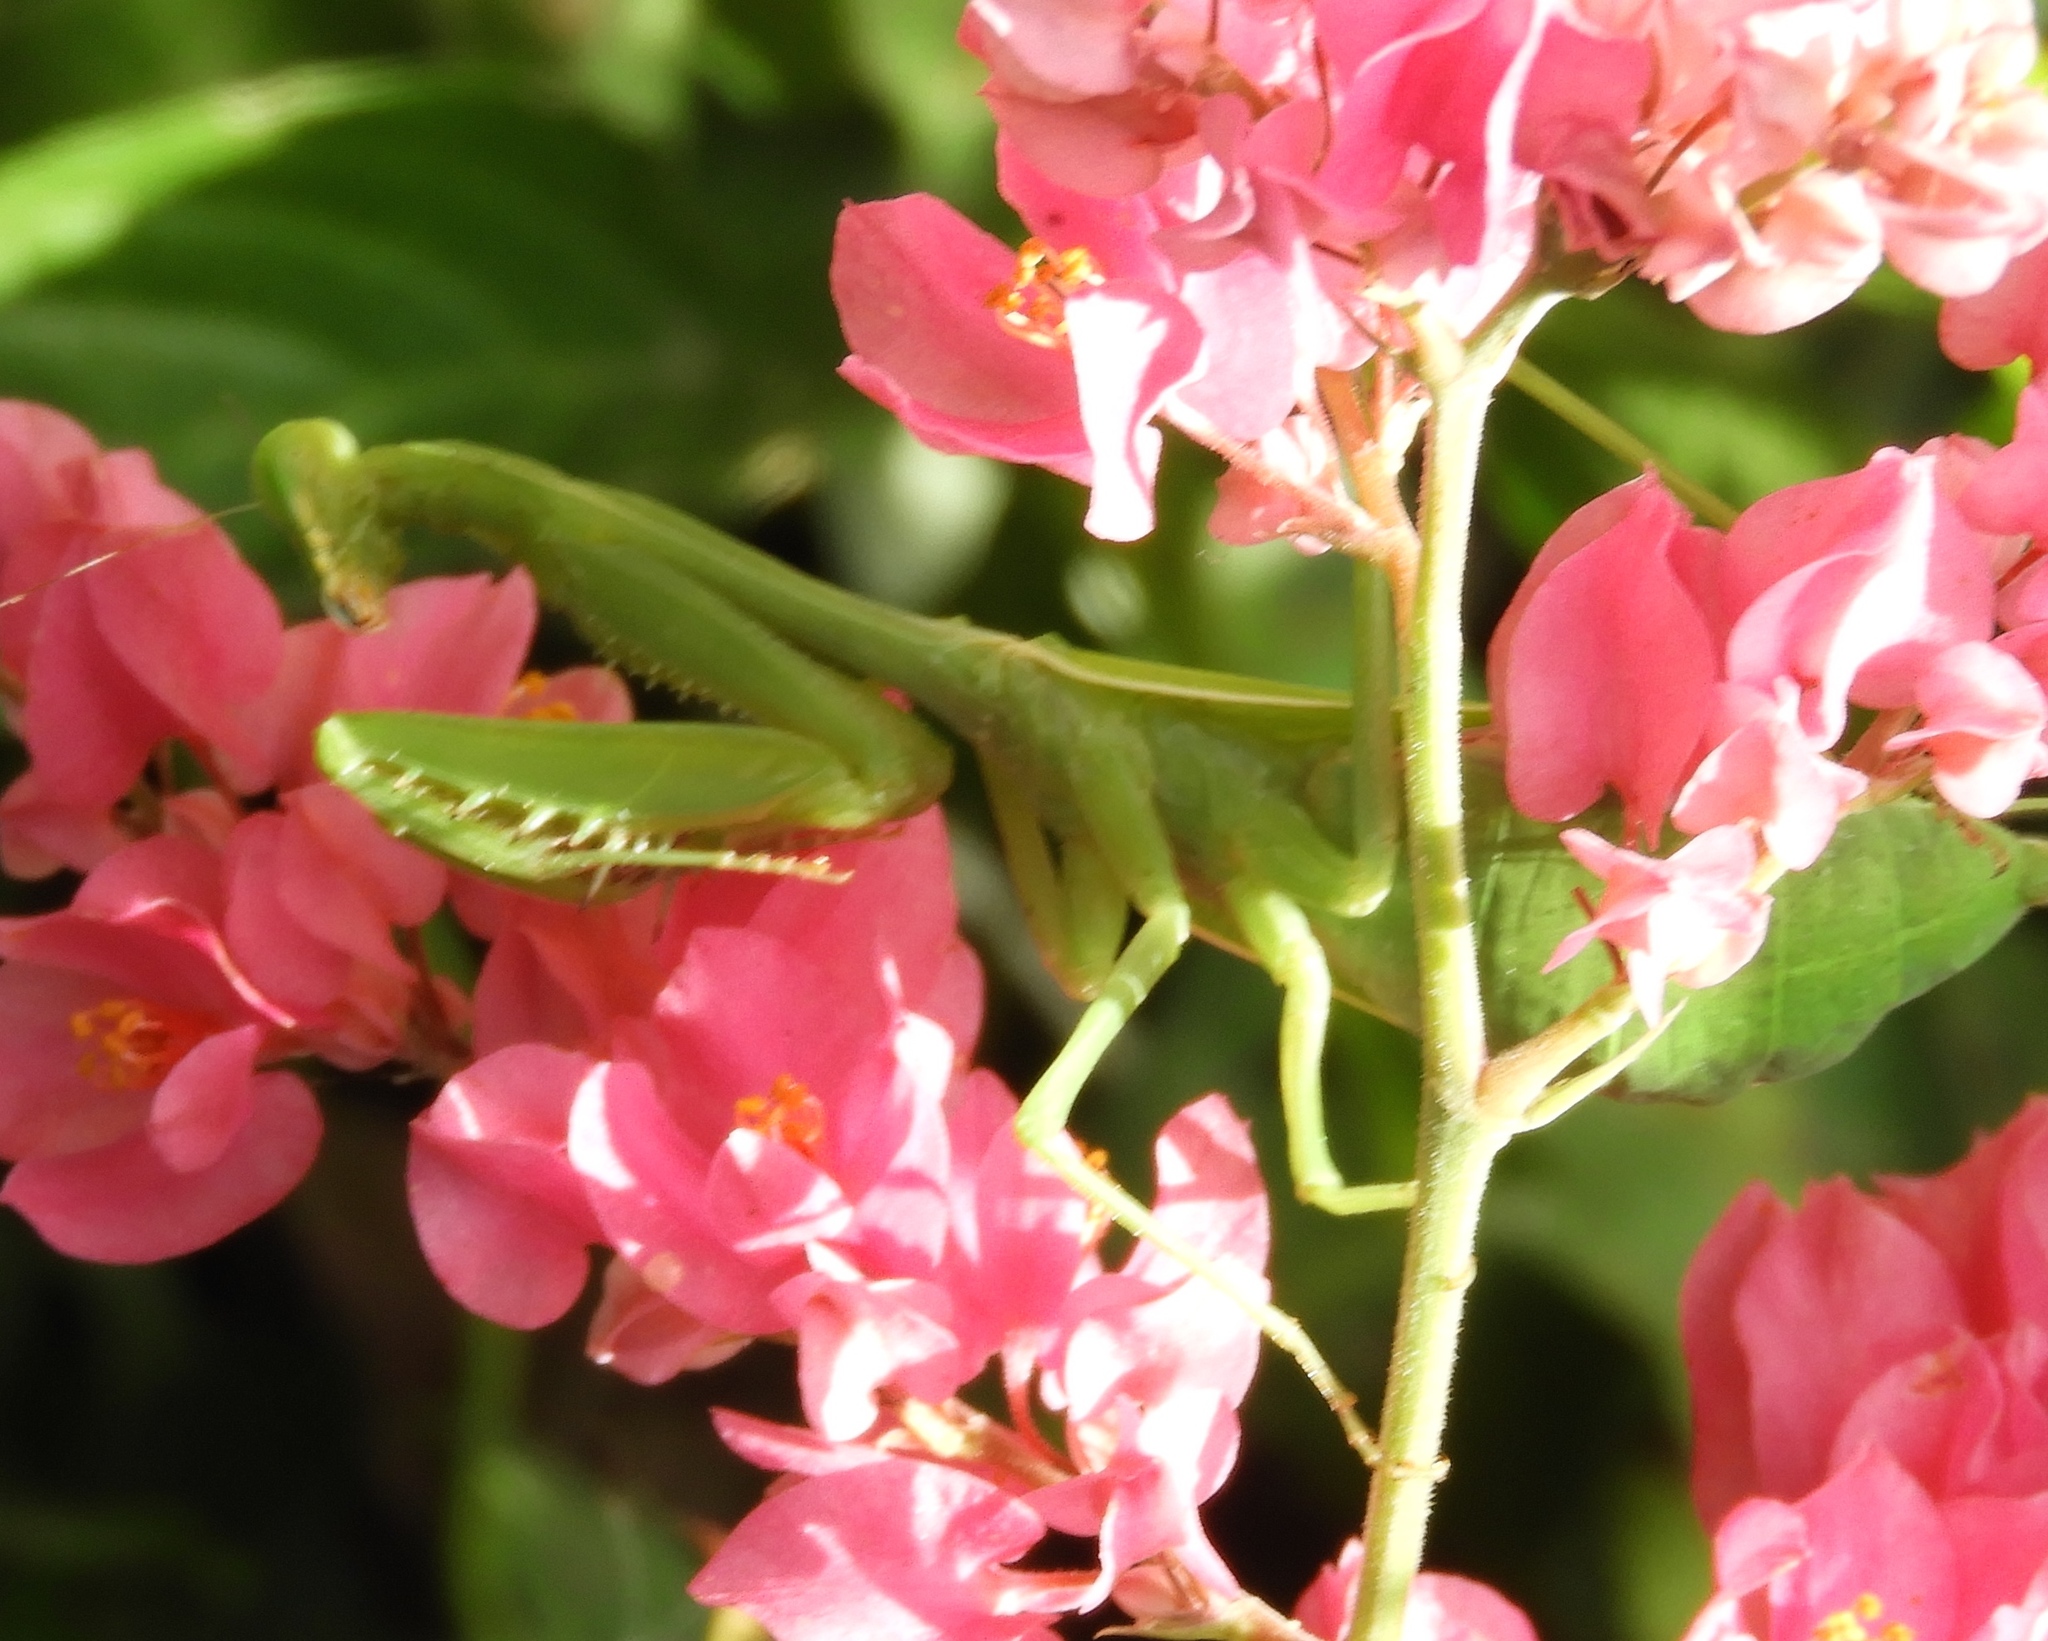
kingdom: Animalia
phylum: Arthropoda
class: Insecta
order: Mantodea
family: Mantidae
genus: Stagmomantis
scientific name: Stagmomantis
